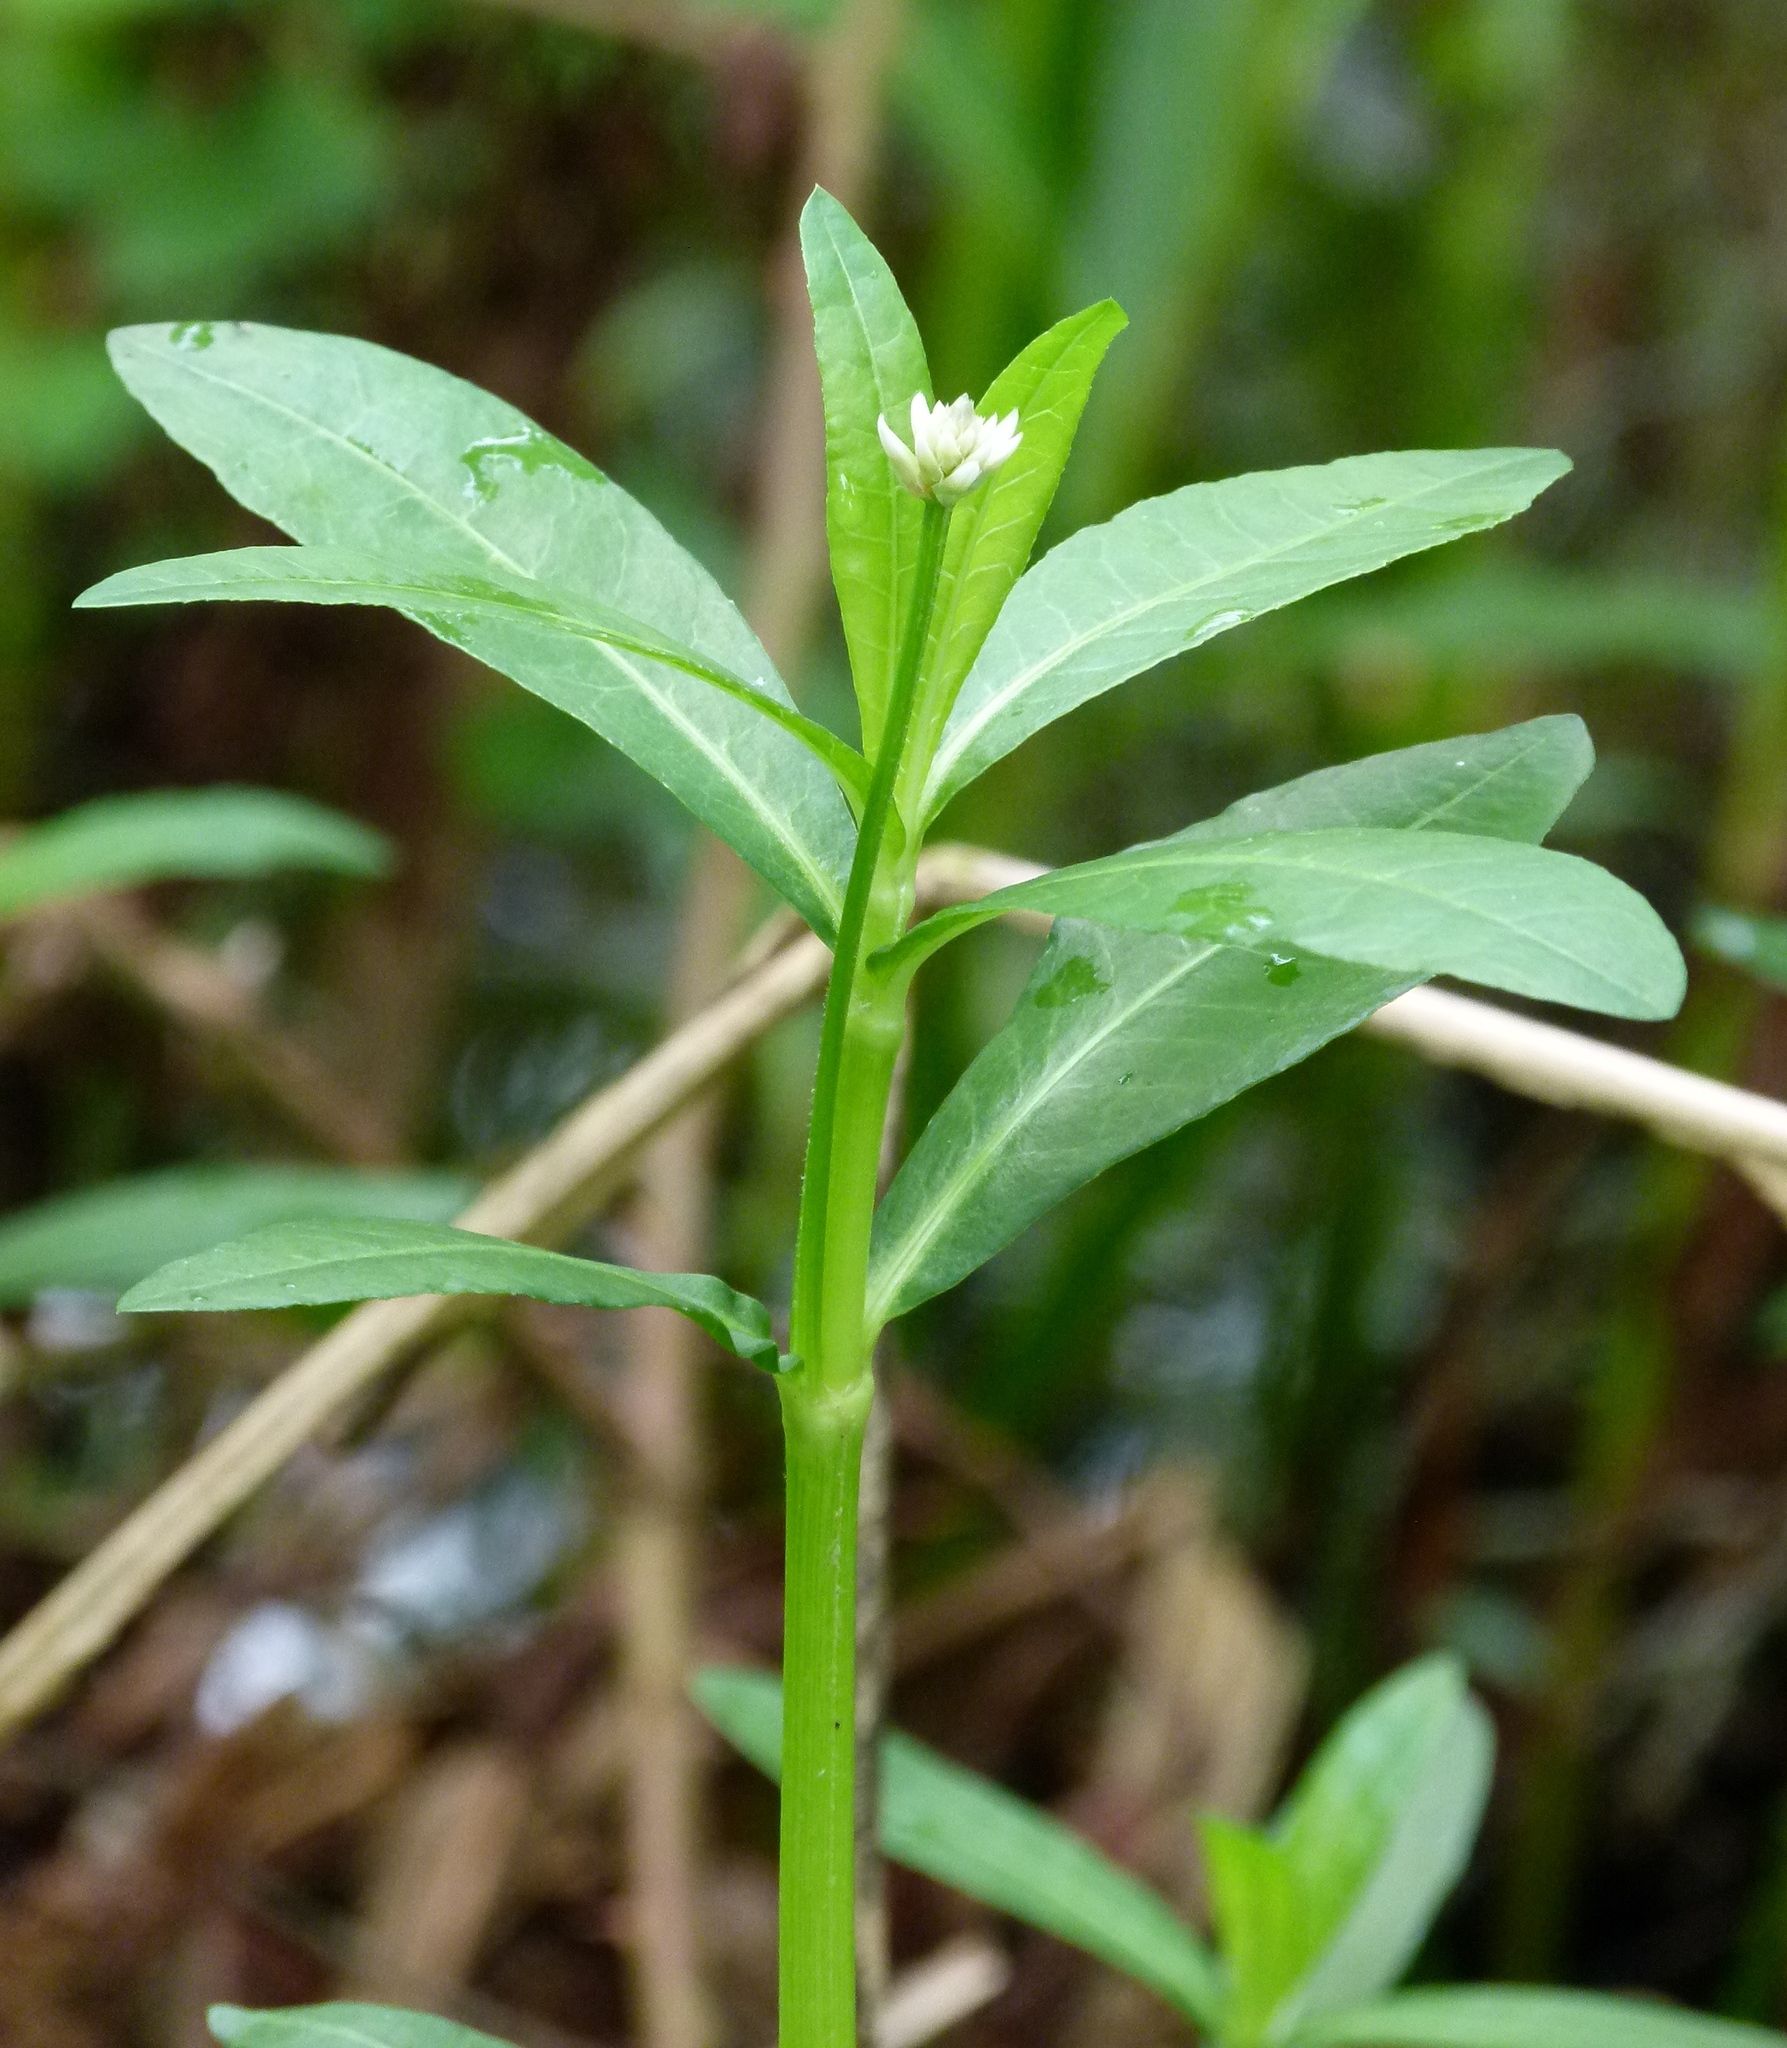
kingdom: Plantae
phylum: Tracheophyta
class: Magnoliopsida
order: Caryophyllales
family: Amaranthaceae
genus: Alternanthera
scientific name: Alternanthera philoxeroides
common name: Alligatorweed
